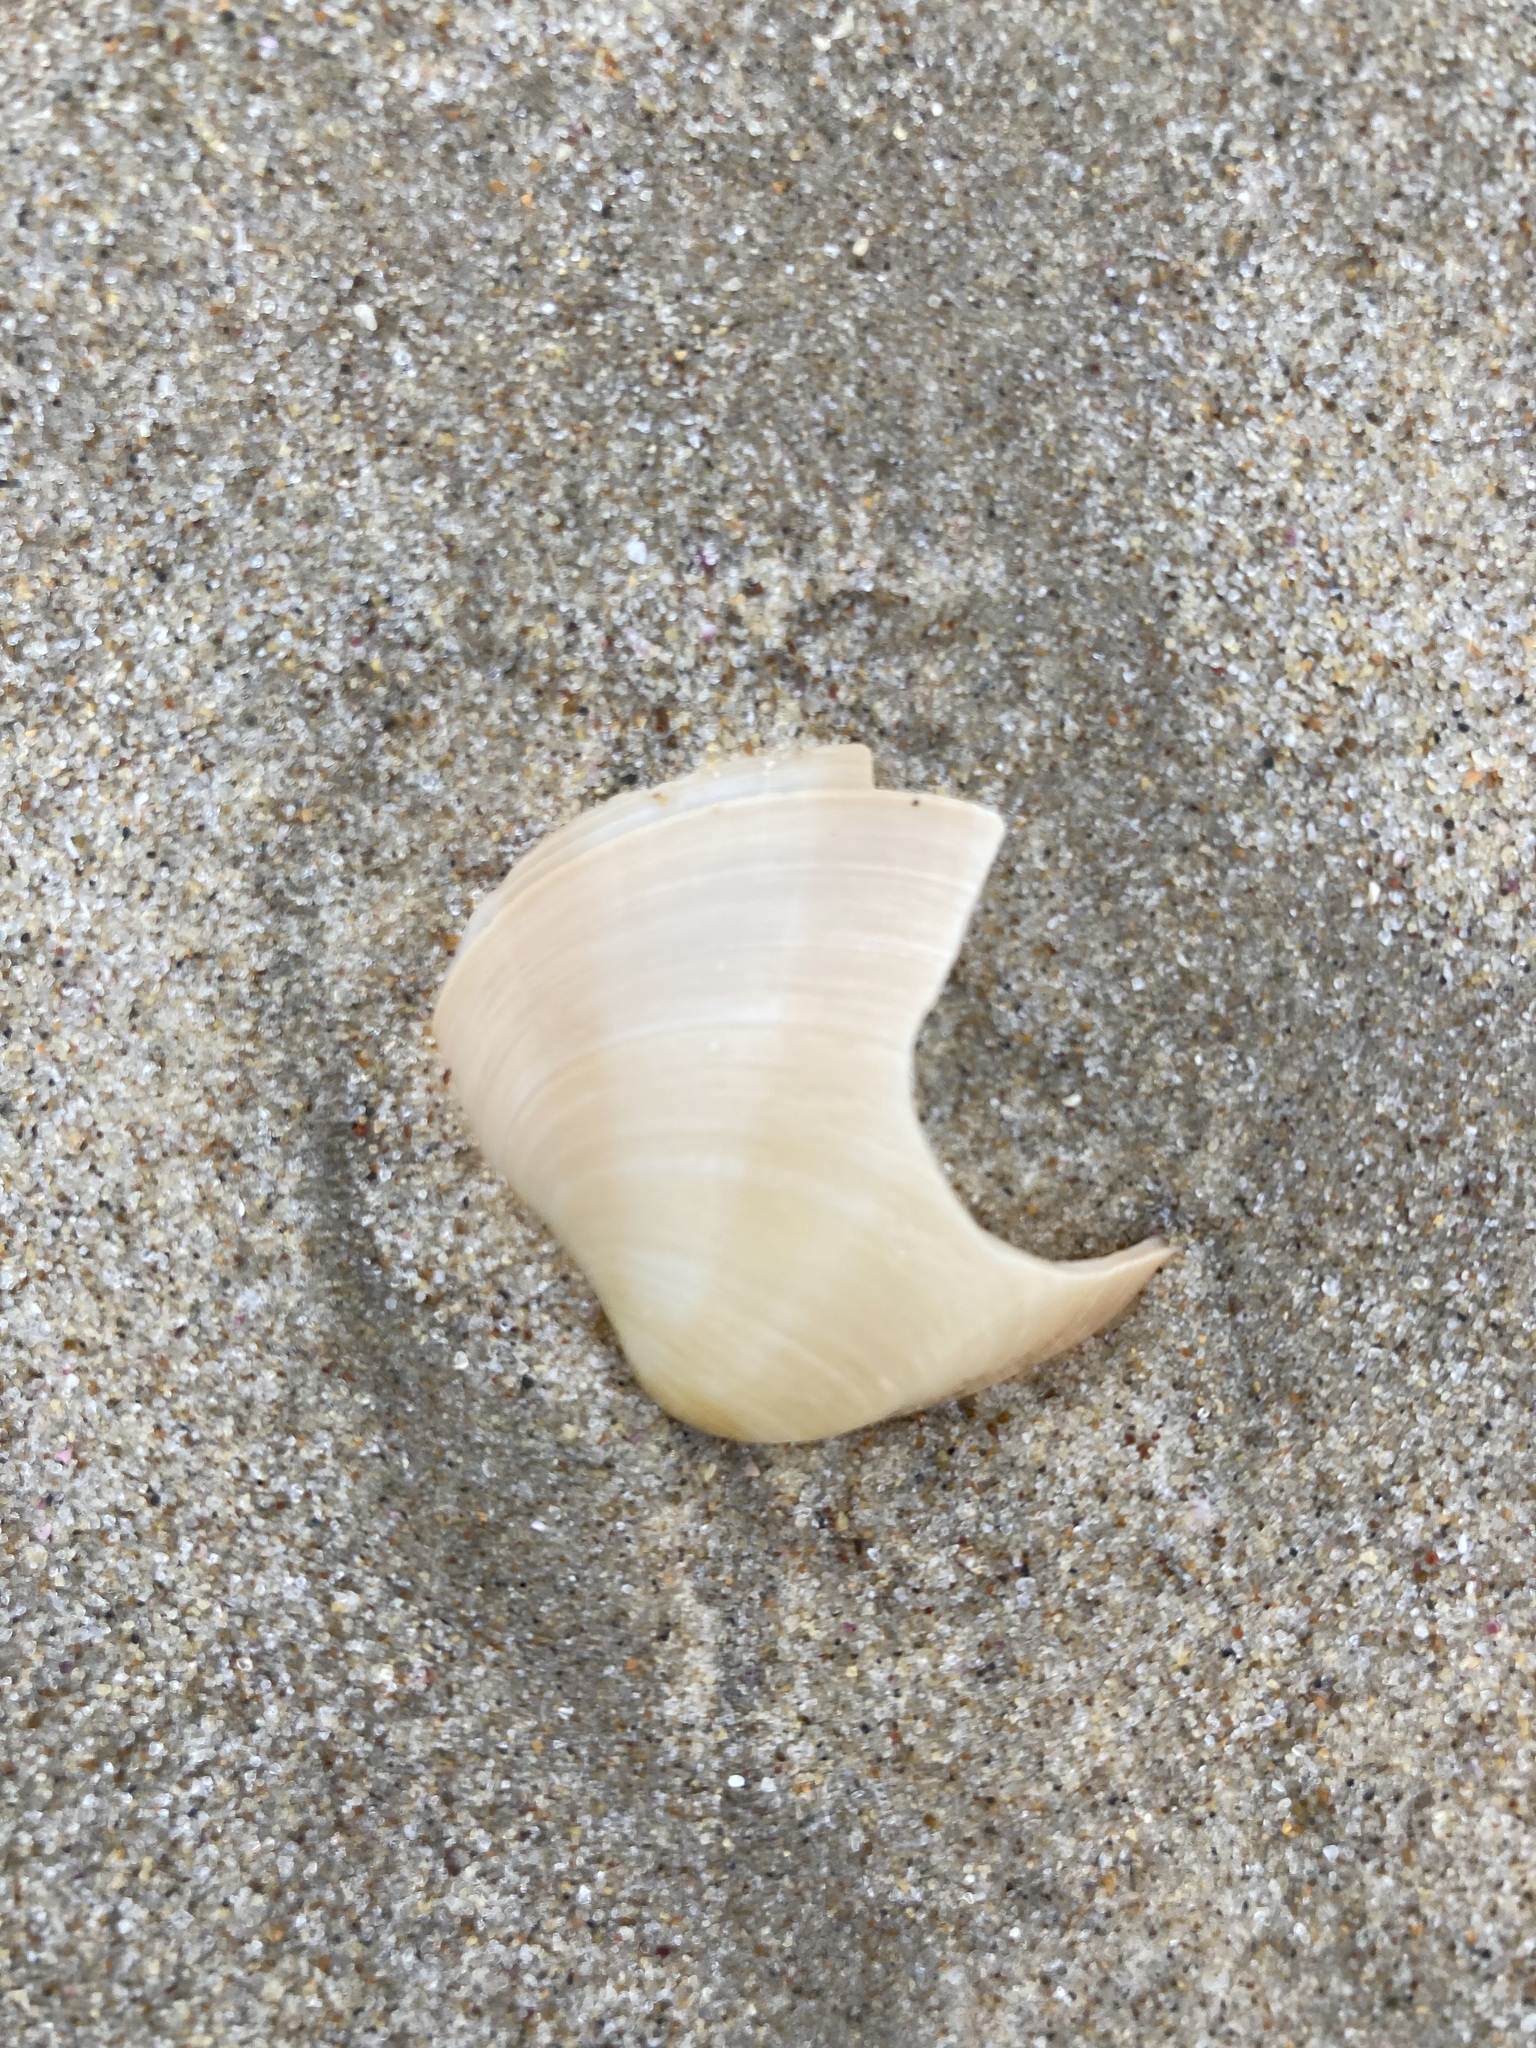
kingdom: Animalia
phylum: Mollusca
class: Bivalvia
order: Venerida
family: Veneridae
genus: Bassina
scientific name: Bassina pachyphylla
